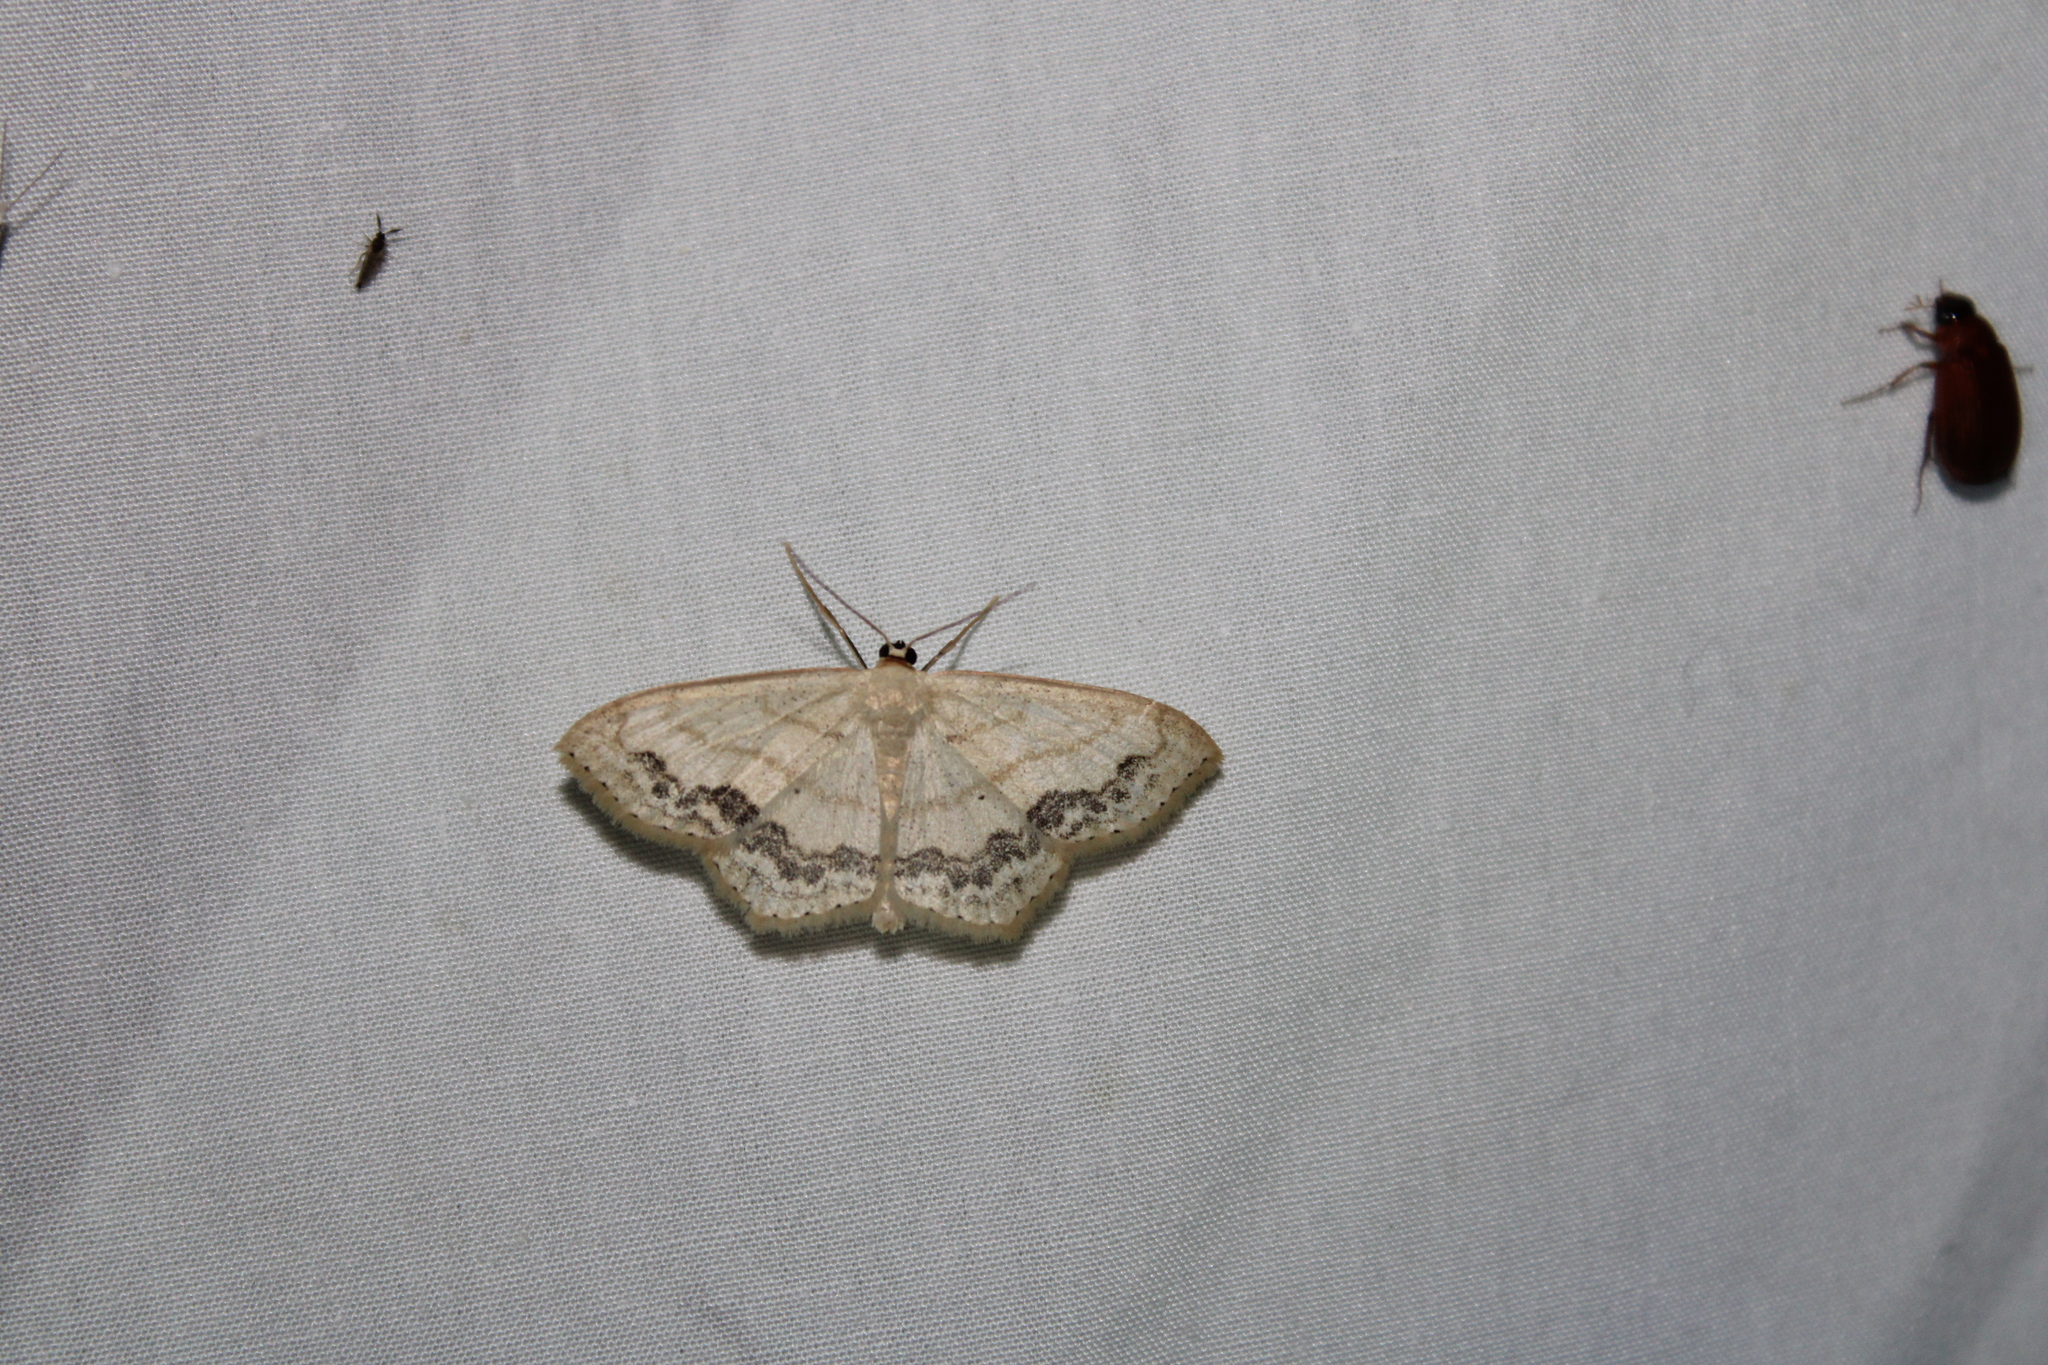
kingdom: Animalia
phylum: Arthropoda
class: Insecta
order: Lepidoptera
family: Geometridae
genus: Scopula
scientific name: Scopula limboundata
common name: Large lace border
